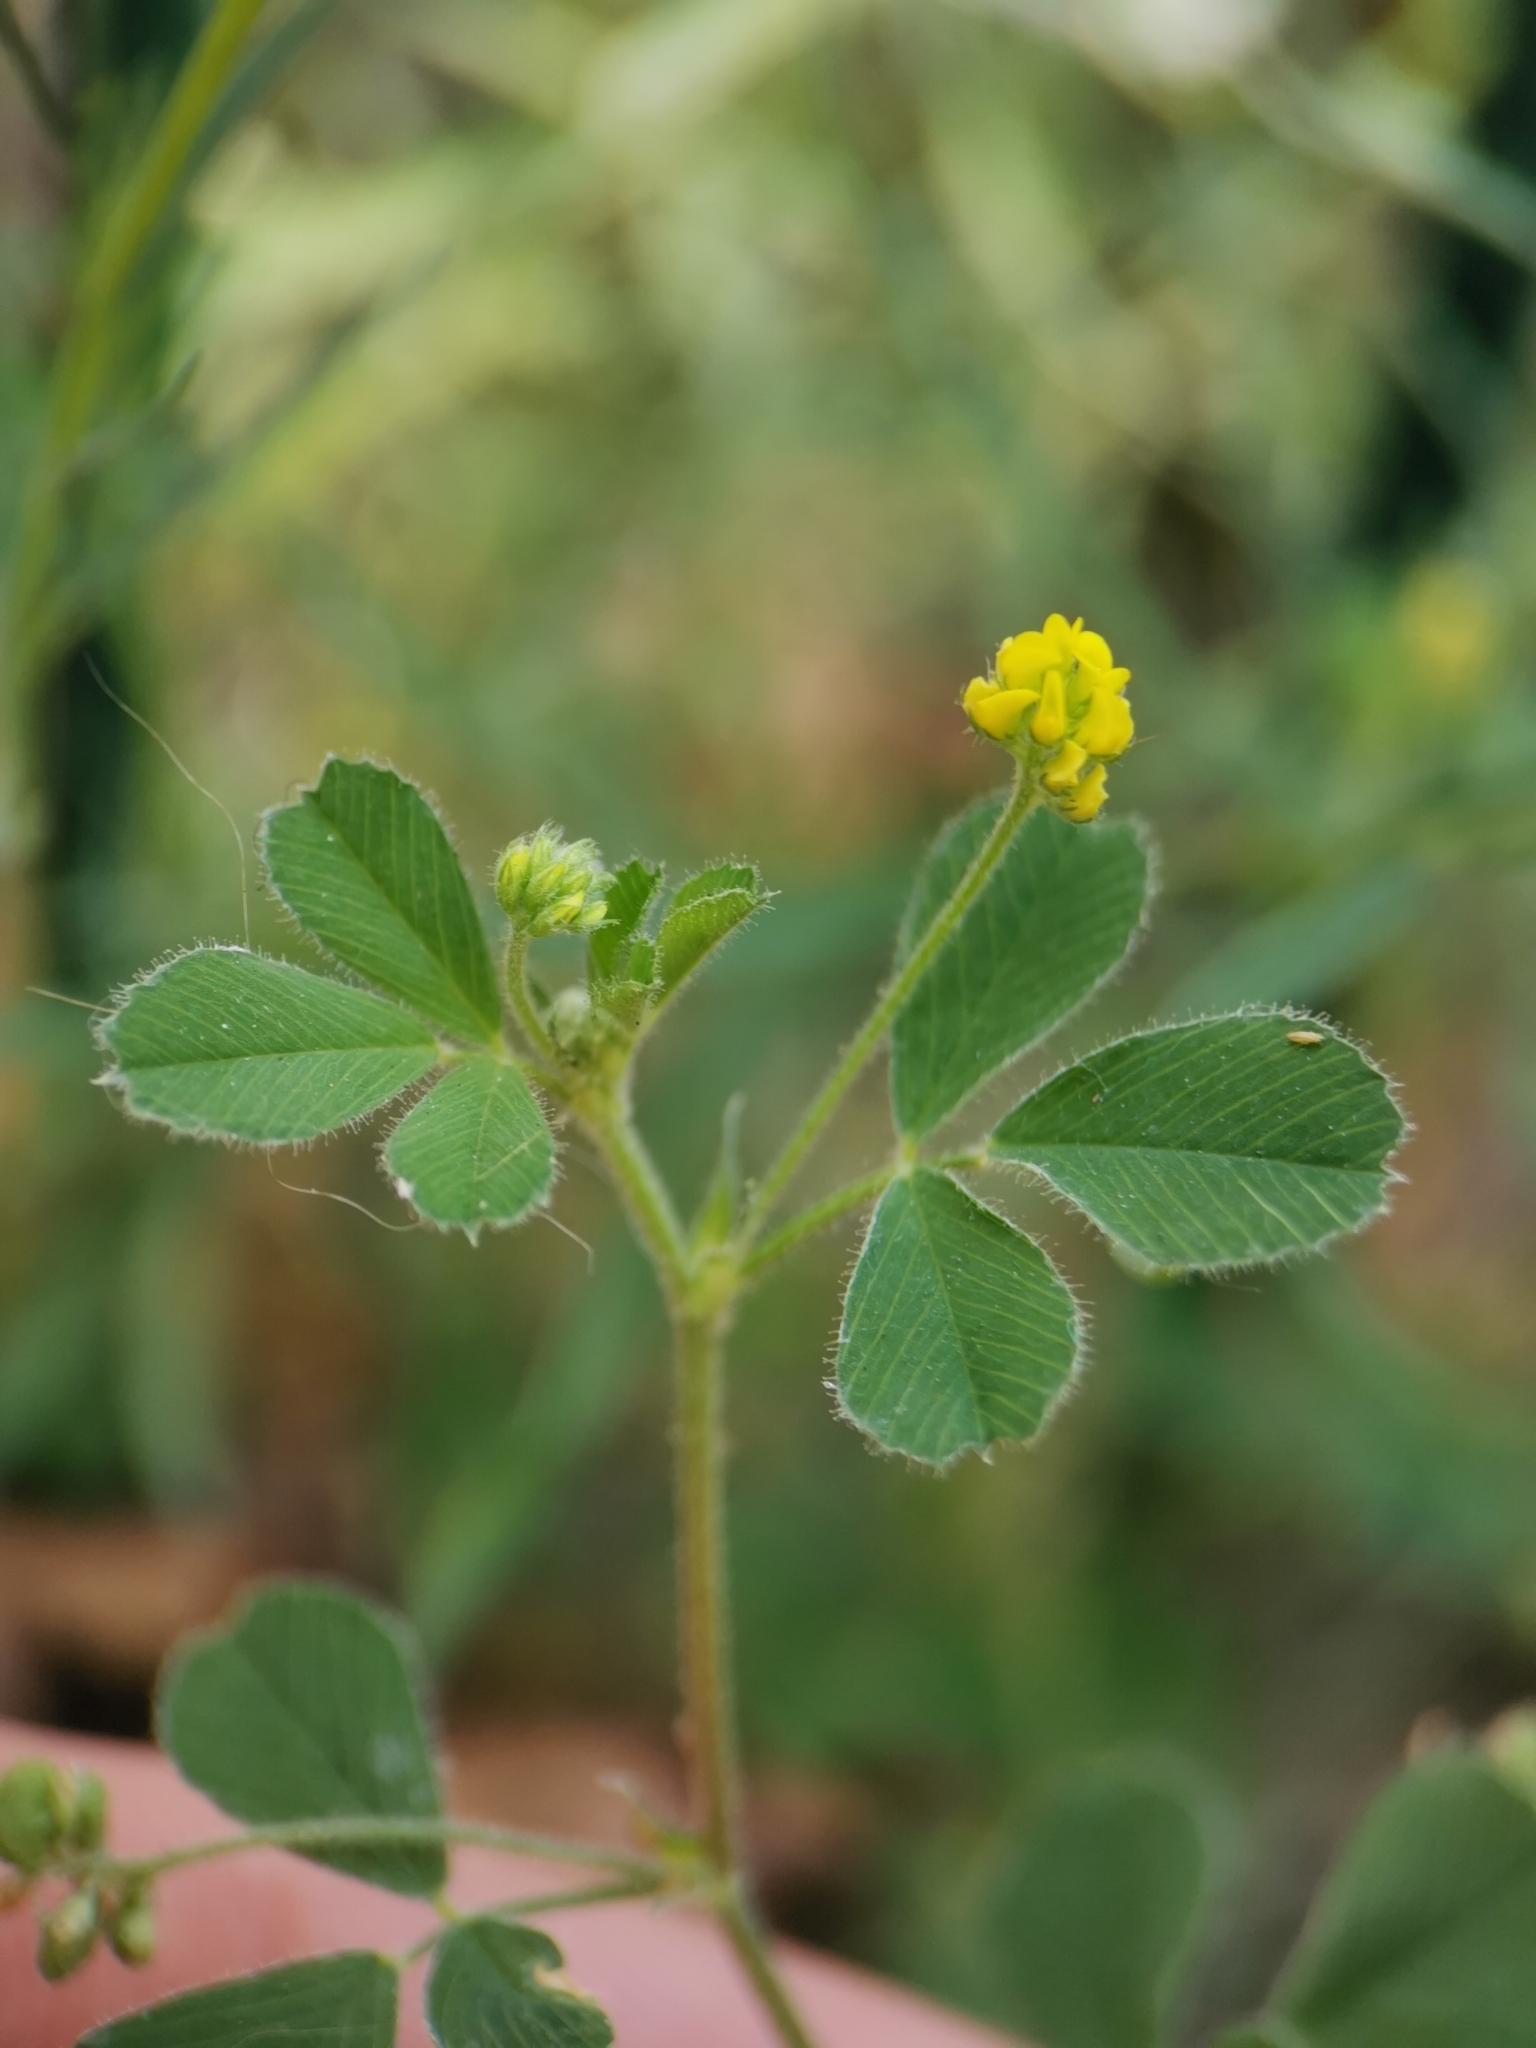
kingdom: Plantae
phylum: Tracheophyta
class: Magnoliopsida
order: Fabales
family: Fabaceae
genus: Medicago
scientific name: Medicago lupulina
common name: Black medick
